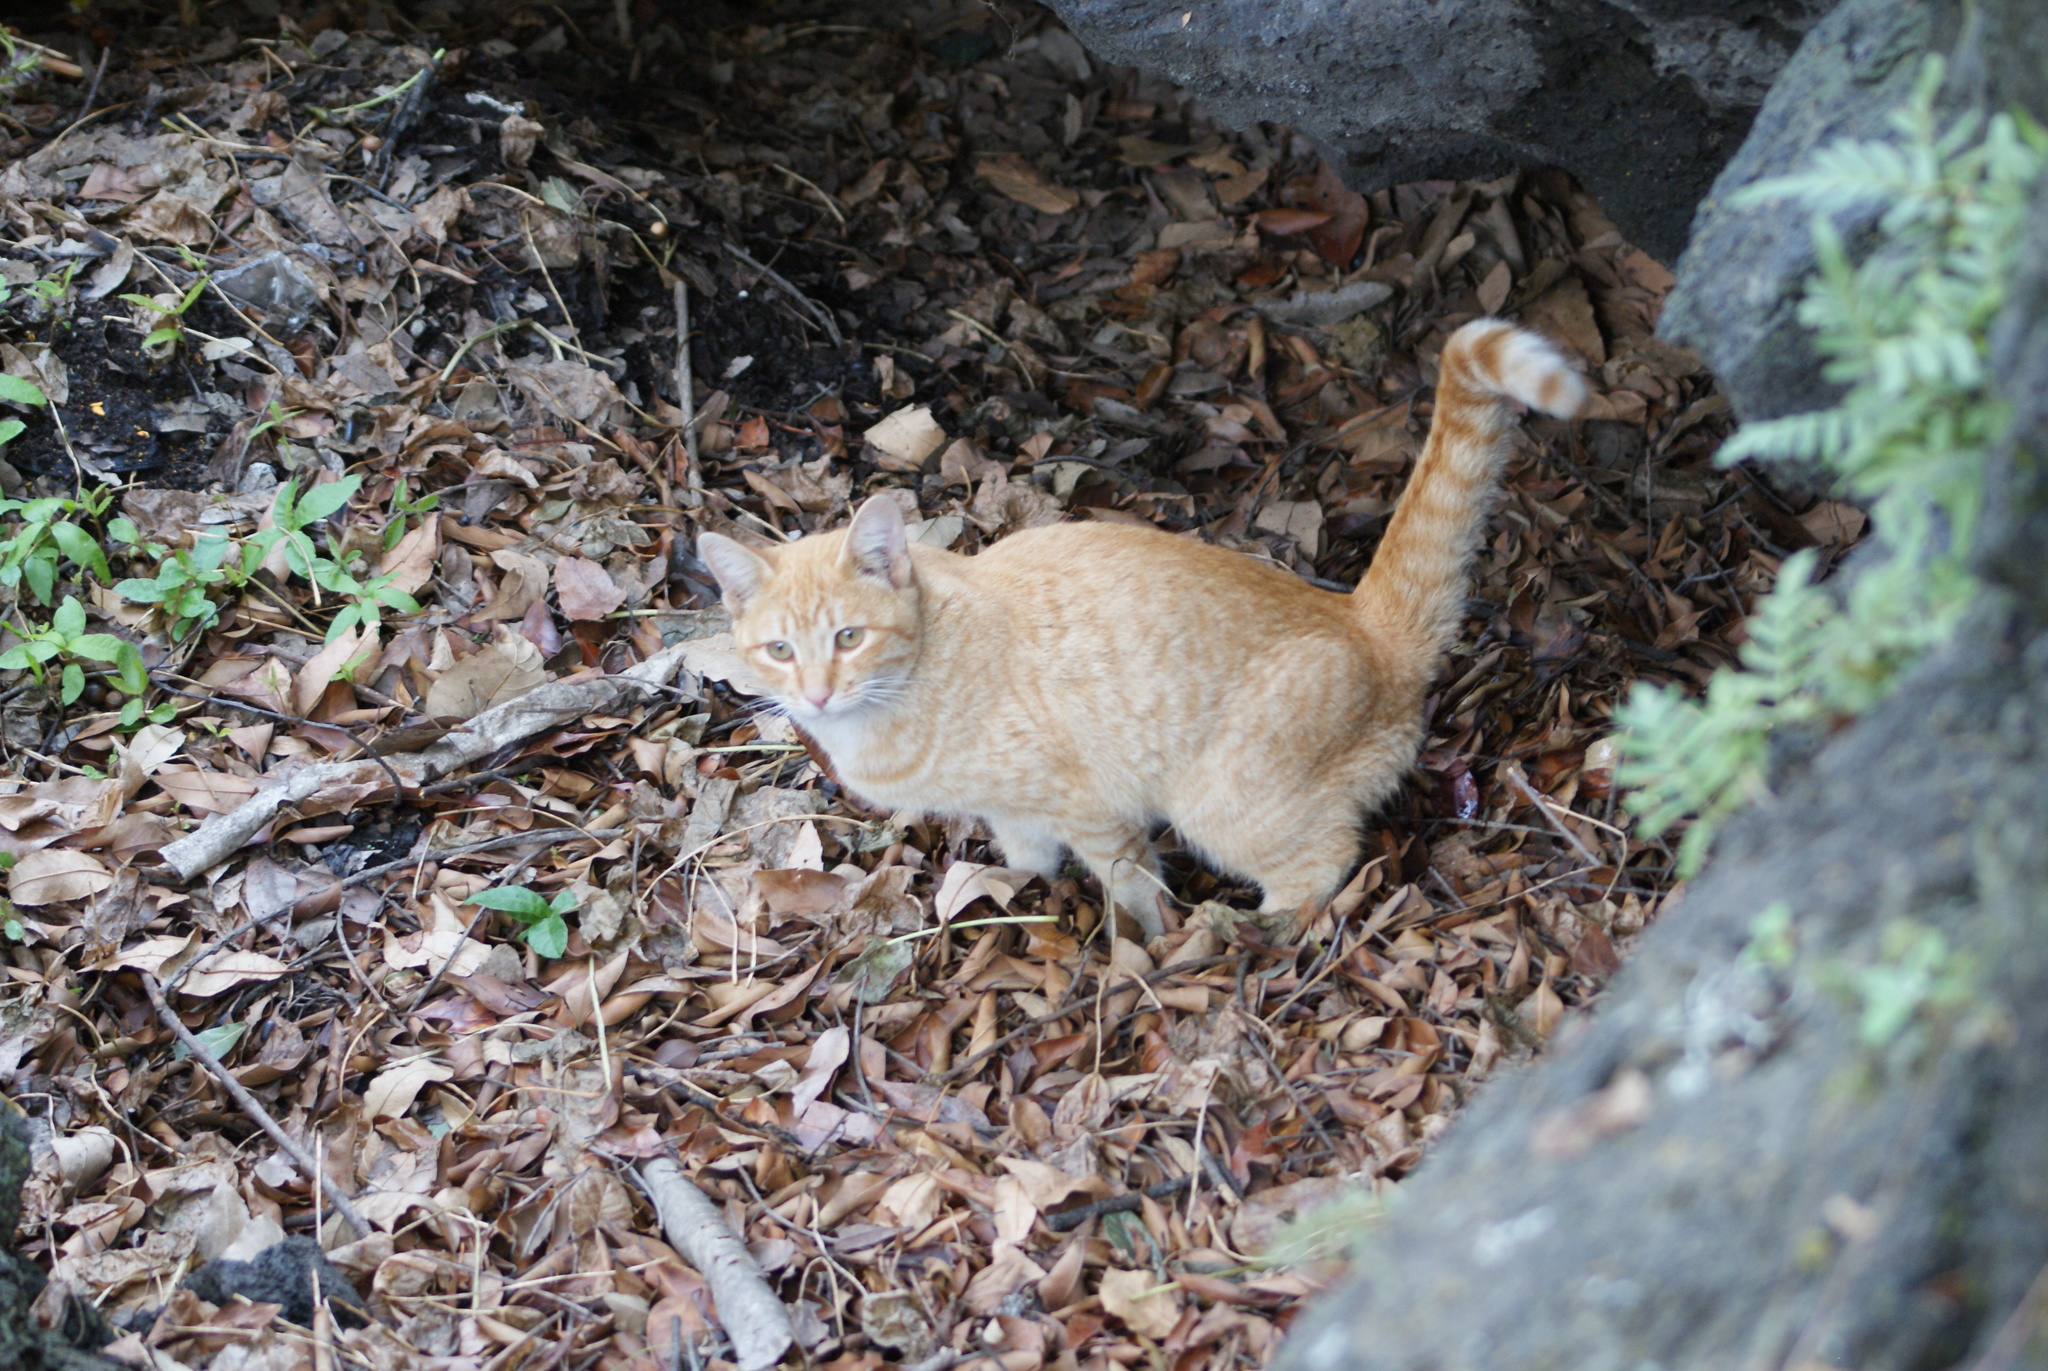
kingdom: Animalia
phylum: Chordata
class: Mammalia
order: Carnivora
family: Felidae
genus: Felis
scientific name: Felis catus
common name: Domestic cat
